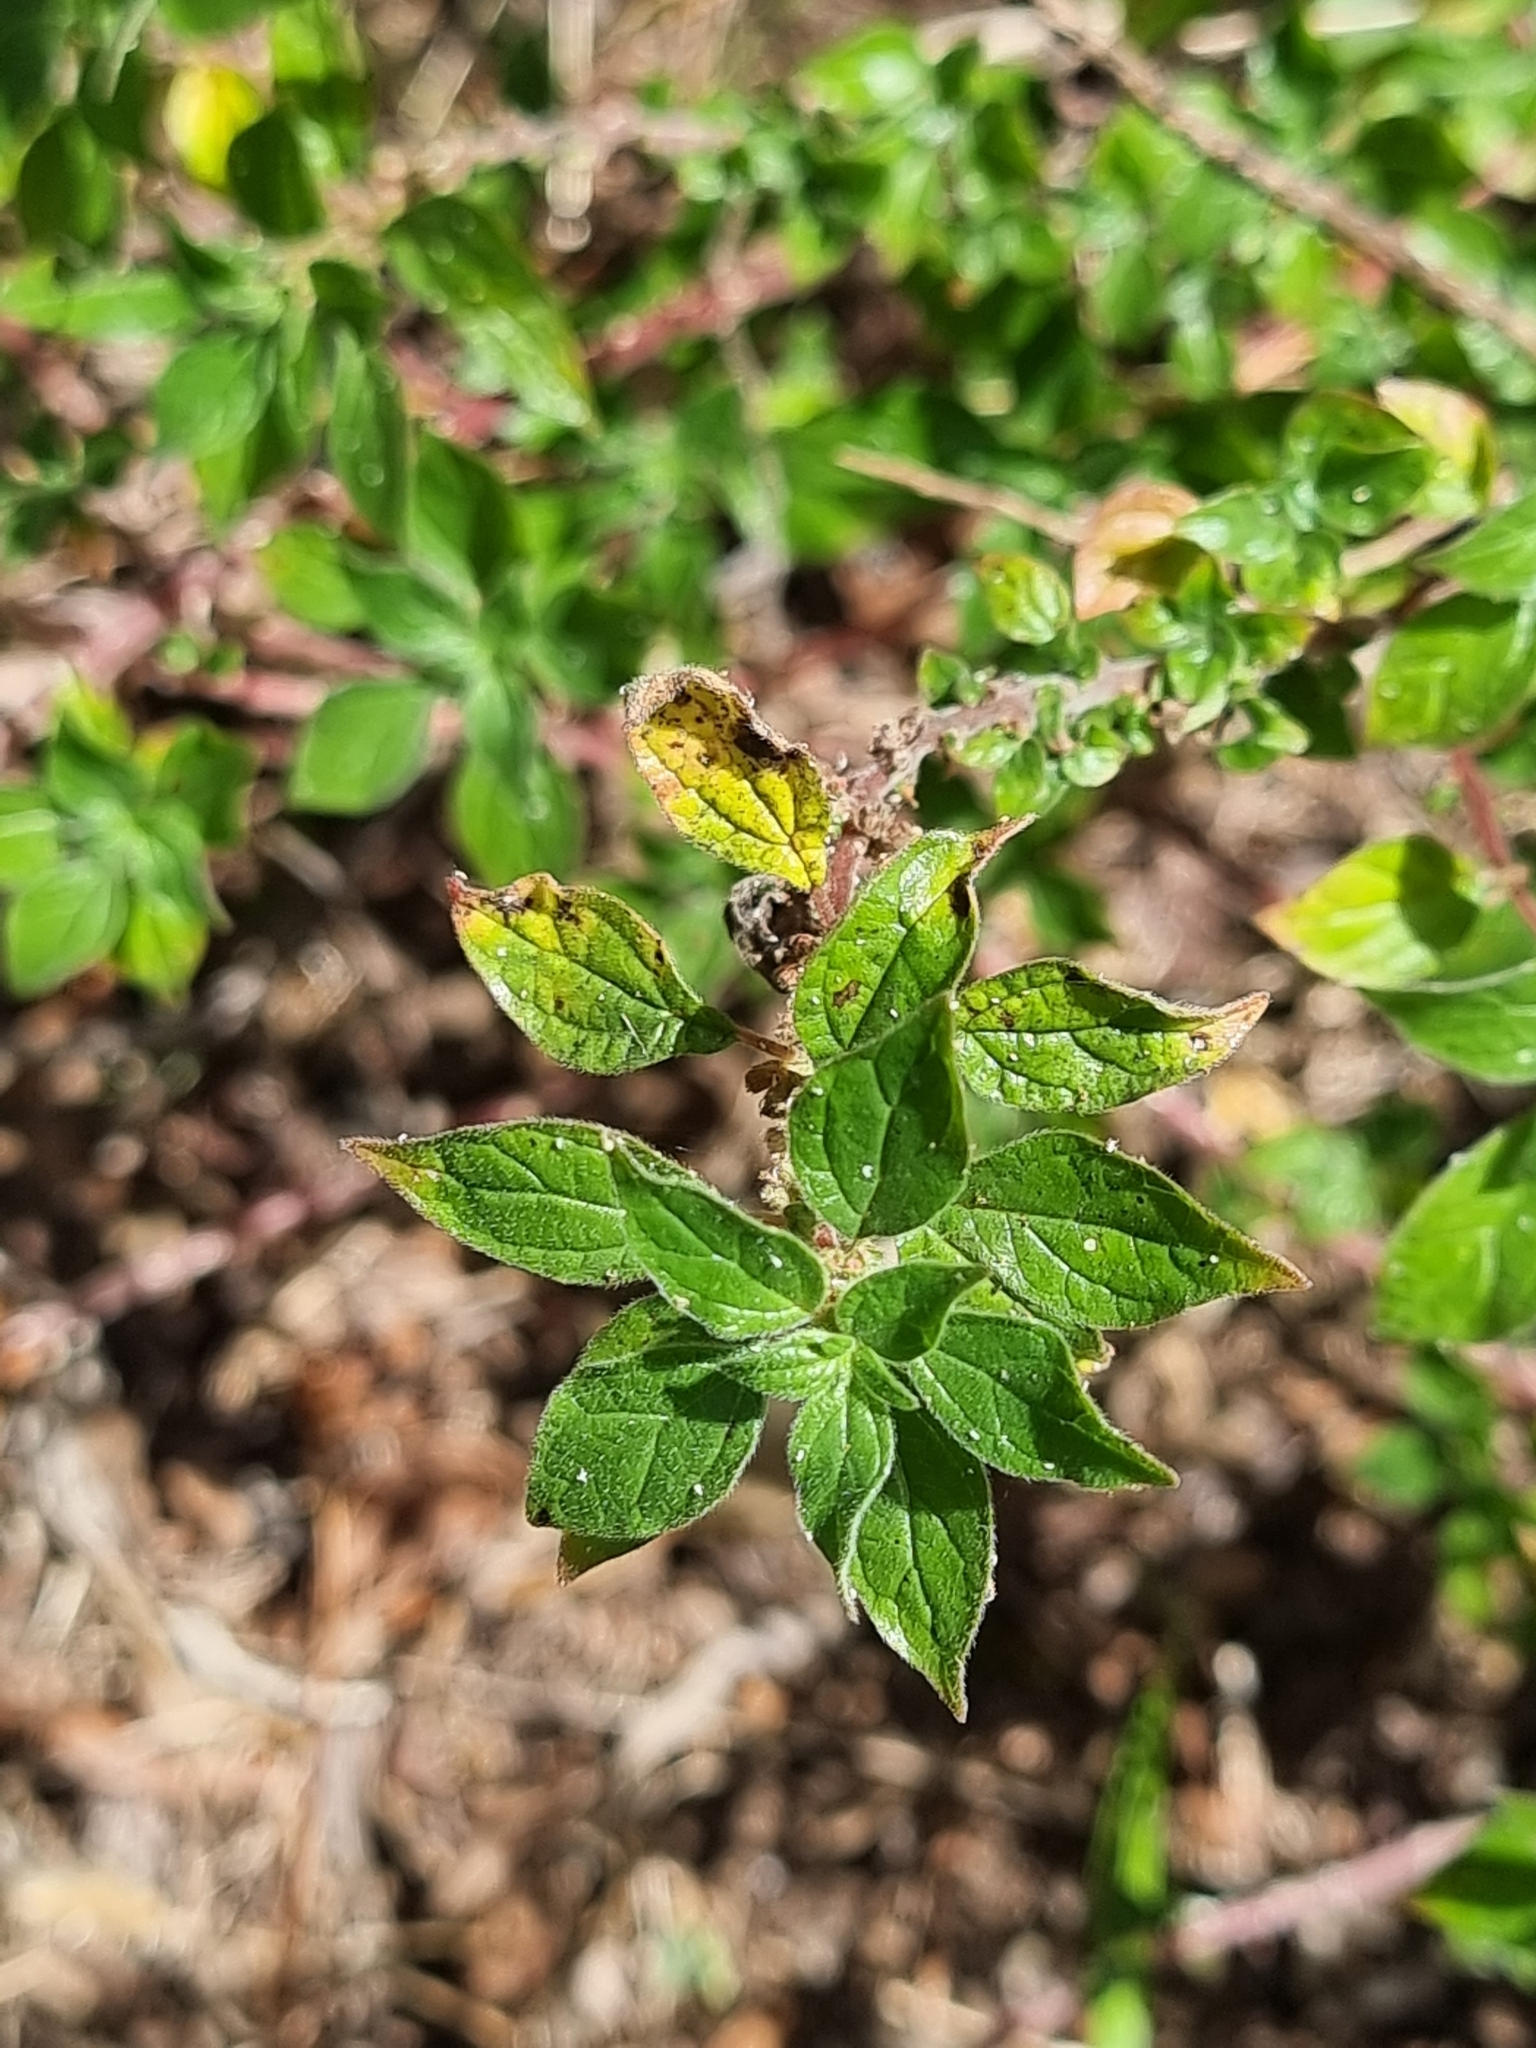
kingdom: Plantae
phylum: Tracheophyta
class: Magnoliopsida
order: Rosales
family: Urticaceae
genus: Parietaria
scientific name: Parietaria judaica
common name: Pellitory-of-the-wall
